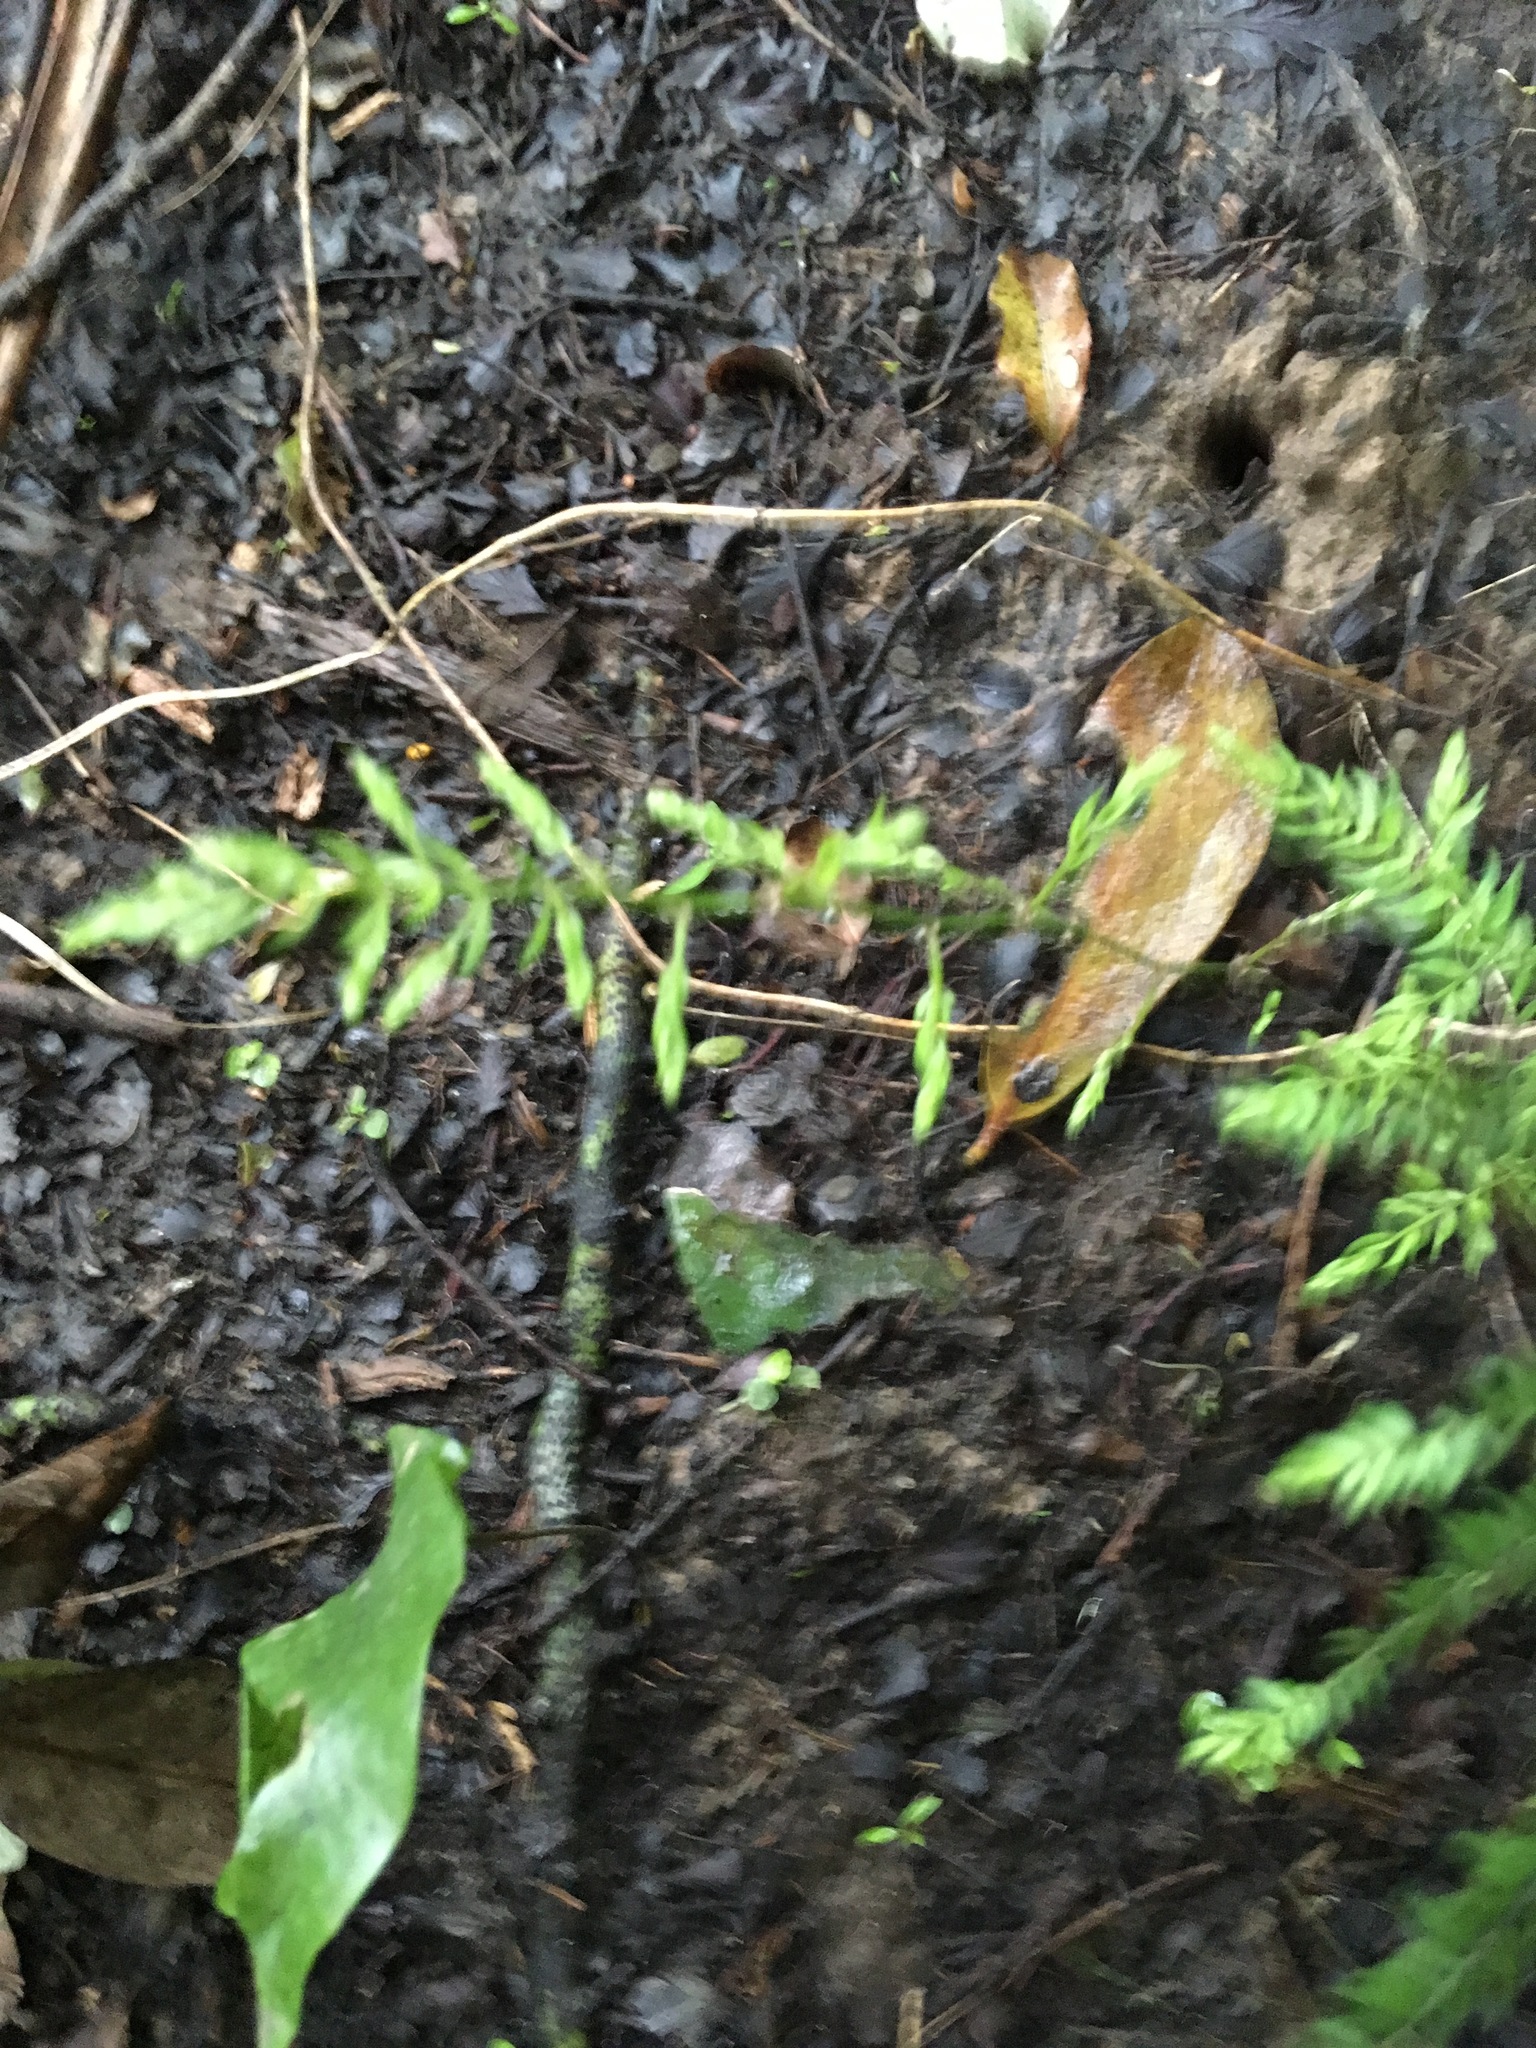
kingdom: Plantae
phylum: Tracheophyta
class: Liliopsida
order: Asparagales
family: Asparagaceae
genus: Asparagus
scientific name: Asparagus scandens
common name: Asparagus-fern
